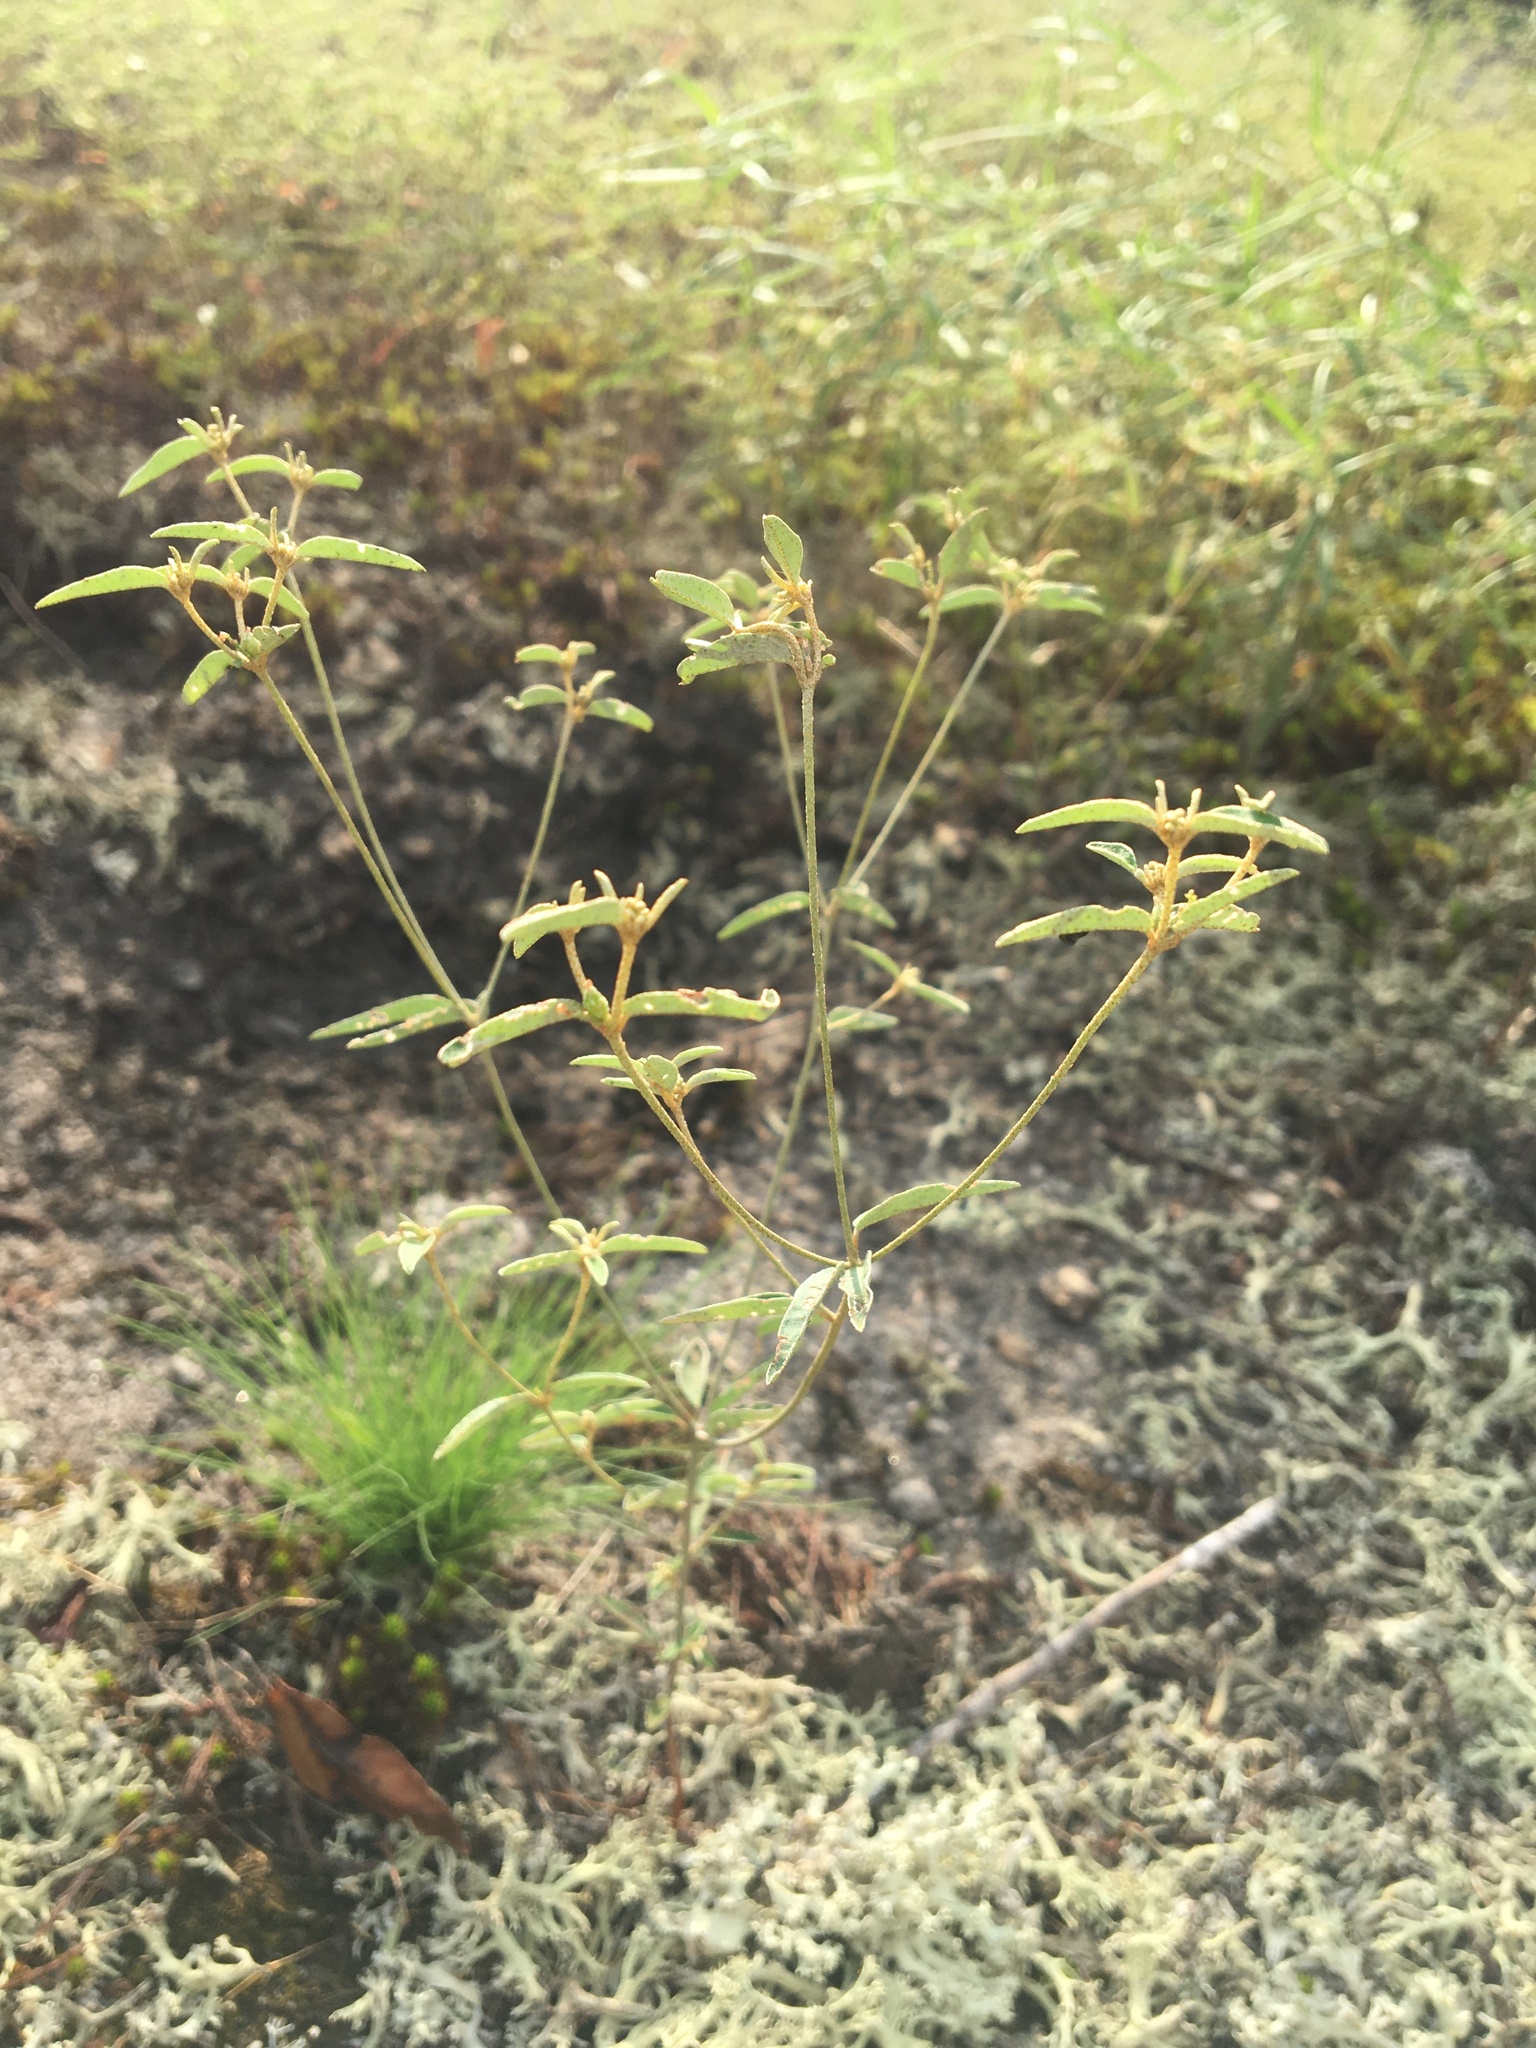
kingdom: Plantae
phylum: Tracheophyta
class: Magnoliopsida
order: Malpighiales
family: Euphorbiaceae
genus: Croton
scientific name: Croton michauxii
